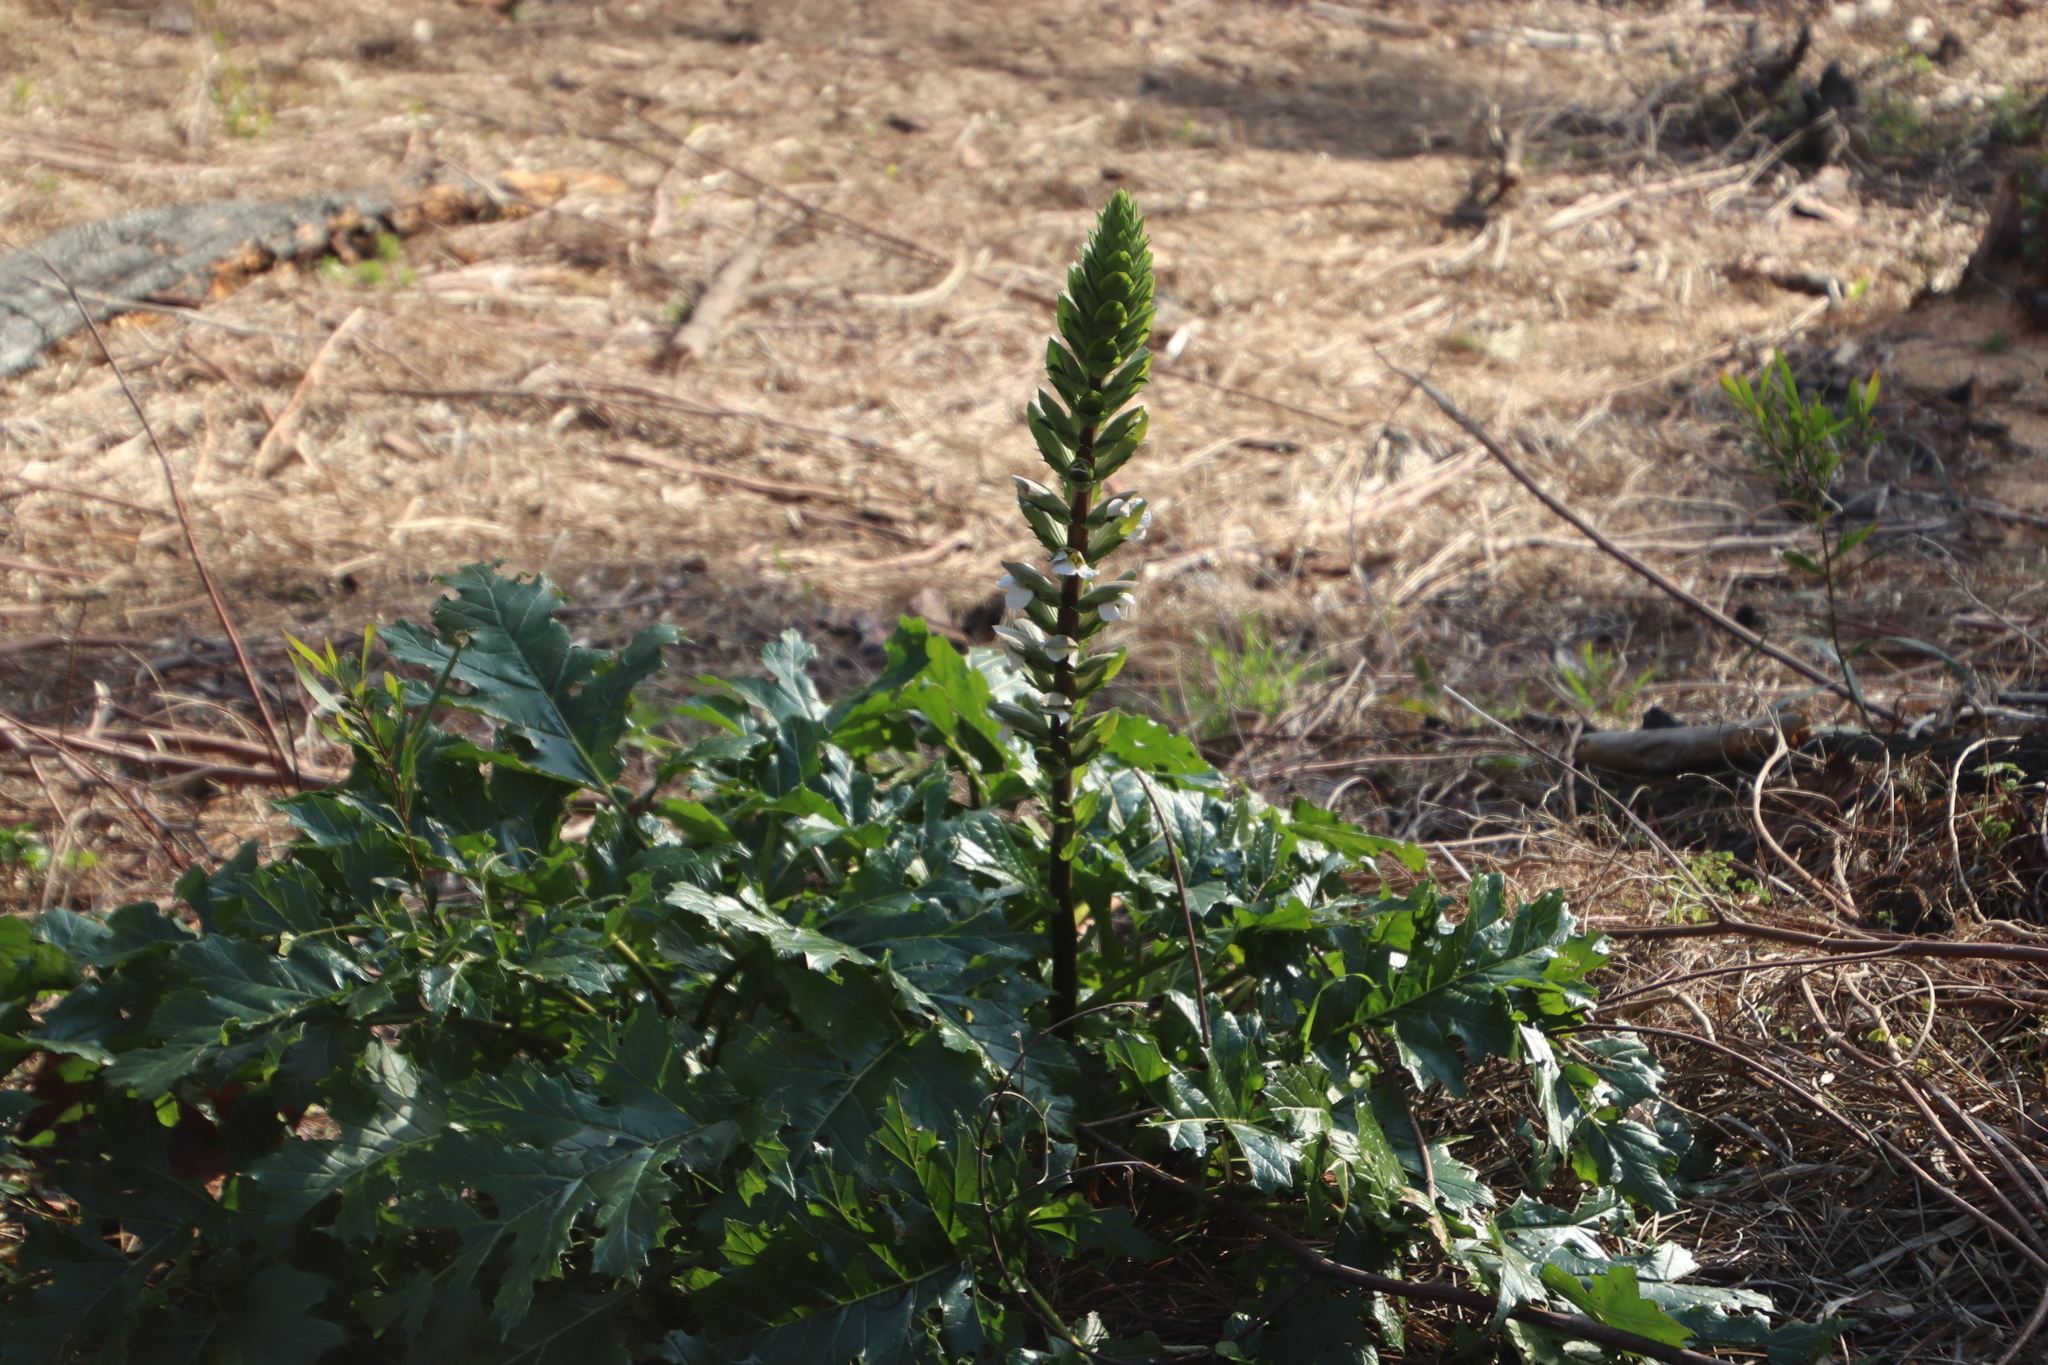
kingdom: Plantae
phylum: Tracheophyta
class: Magnoliopsida
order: Lamiales
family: Acanthaceae
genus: Acanthus
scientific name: Acanthus mollis
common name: Bear's-breech
